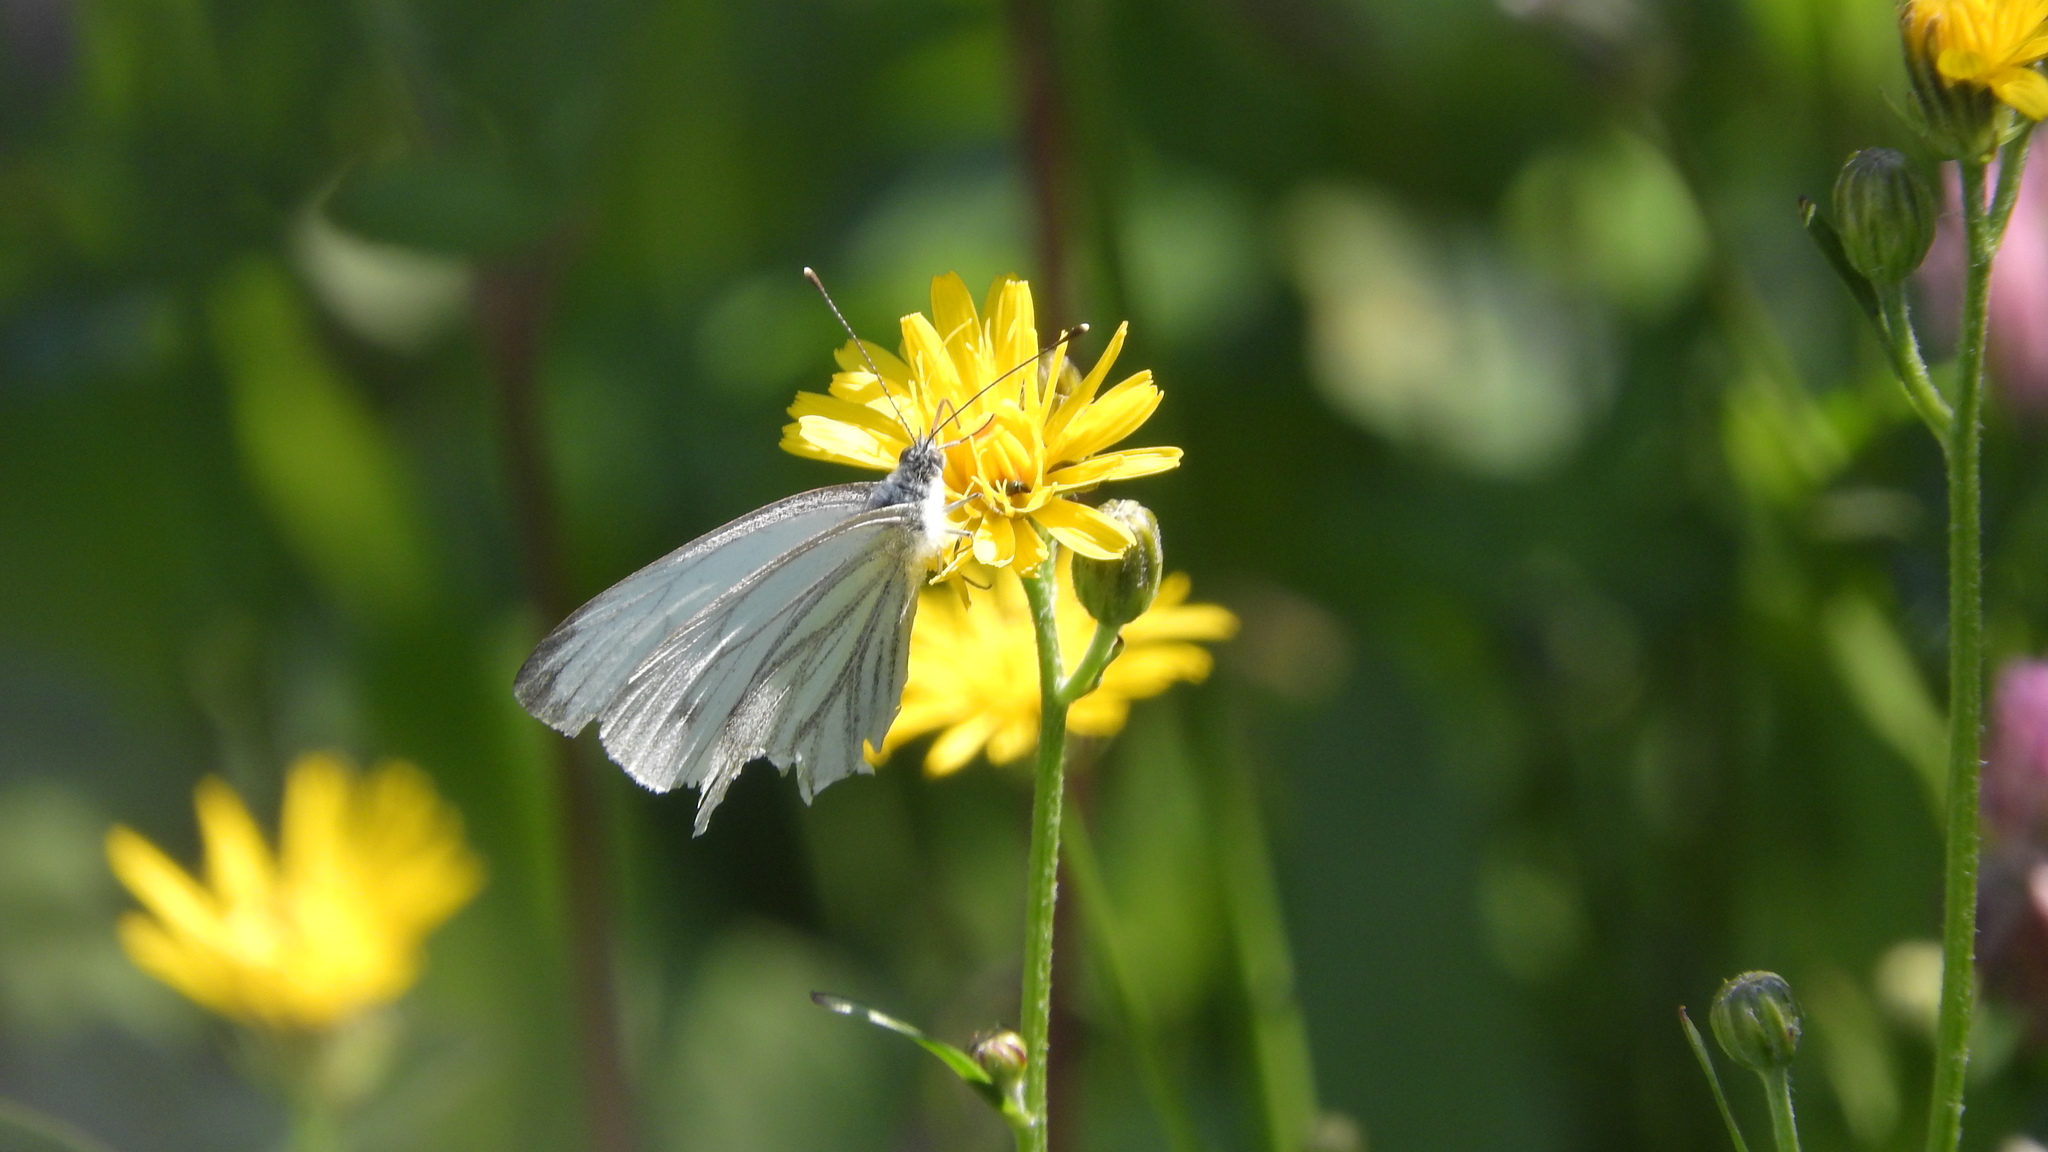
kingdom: Animalia
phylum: Arthropoda
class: Insecta
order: Lepidoptera
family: Pieridae
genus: Pieris
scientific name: Pieris napi
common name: Green-veined white
